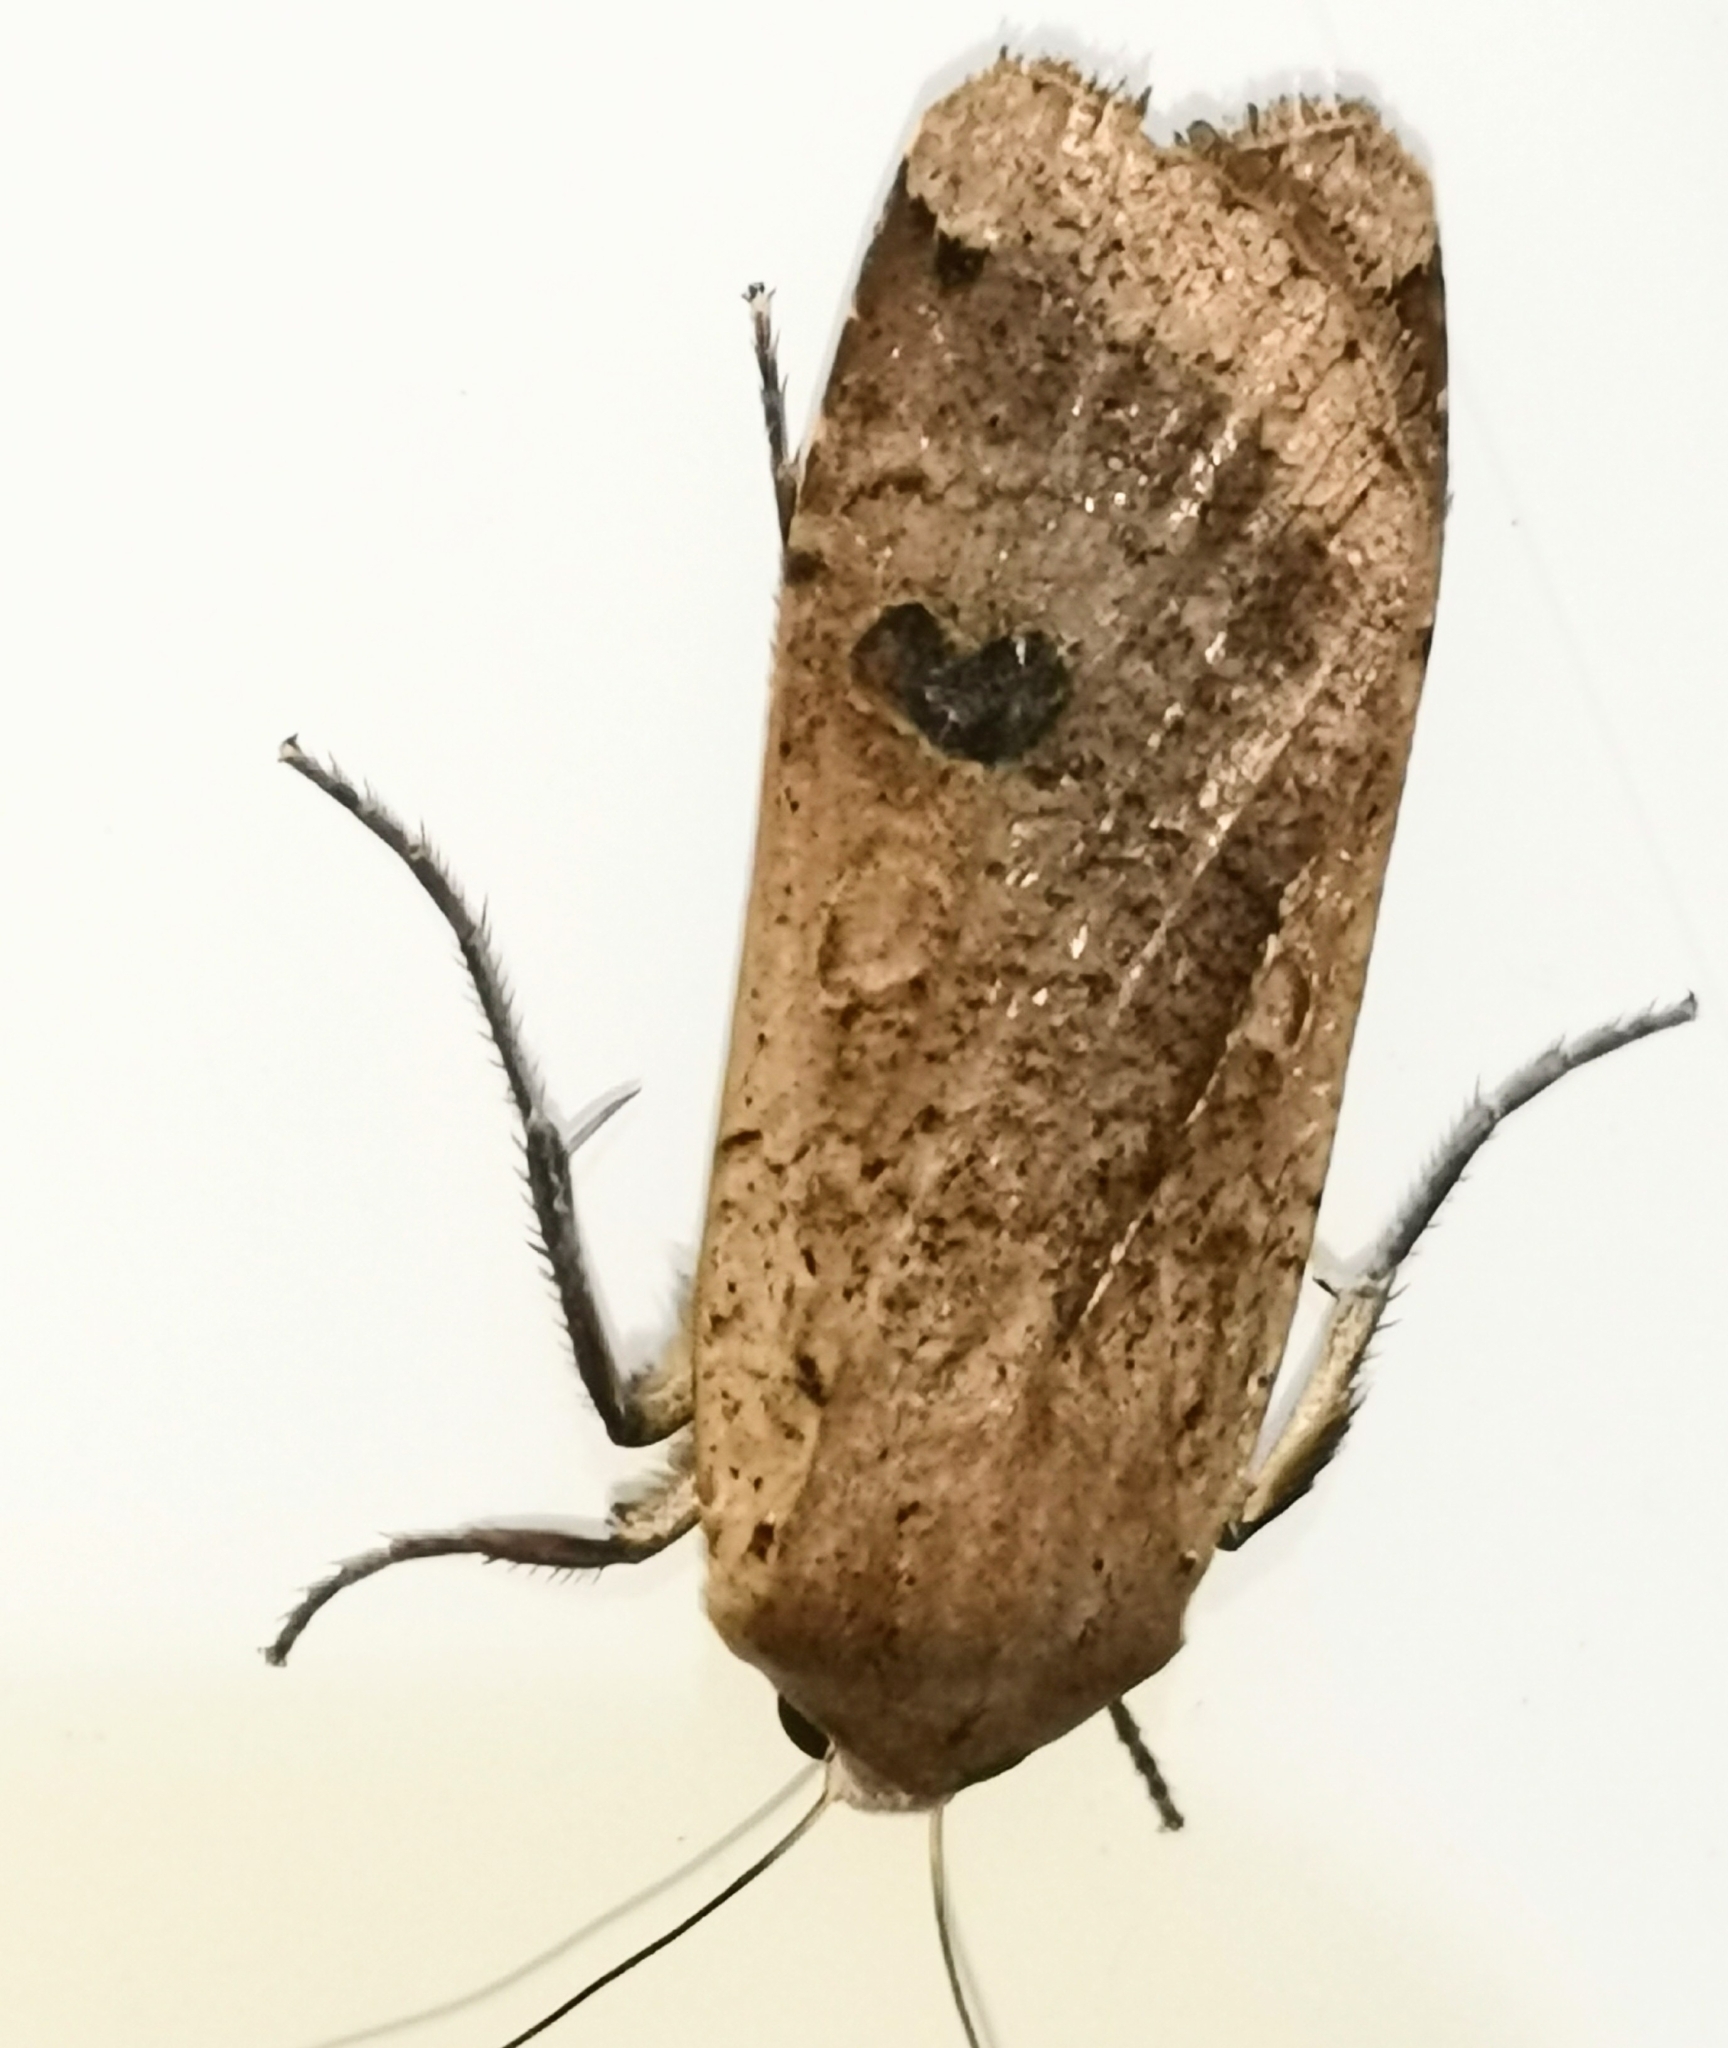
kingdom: Animalia
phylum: Arthropoda
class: Insecta
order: Lepidoptera
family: Noctuidae
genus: Noctua
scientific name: Noctua pronuba
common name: Large yellow underwing
